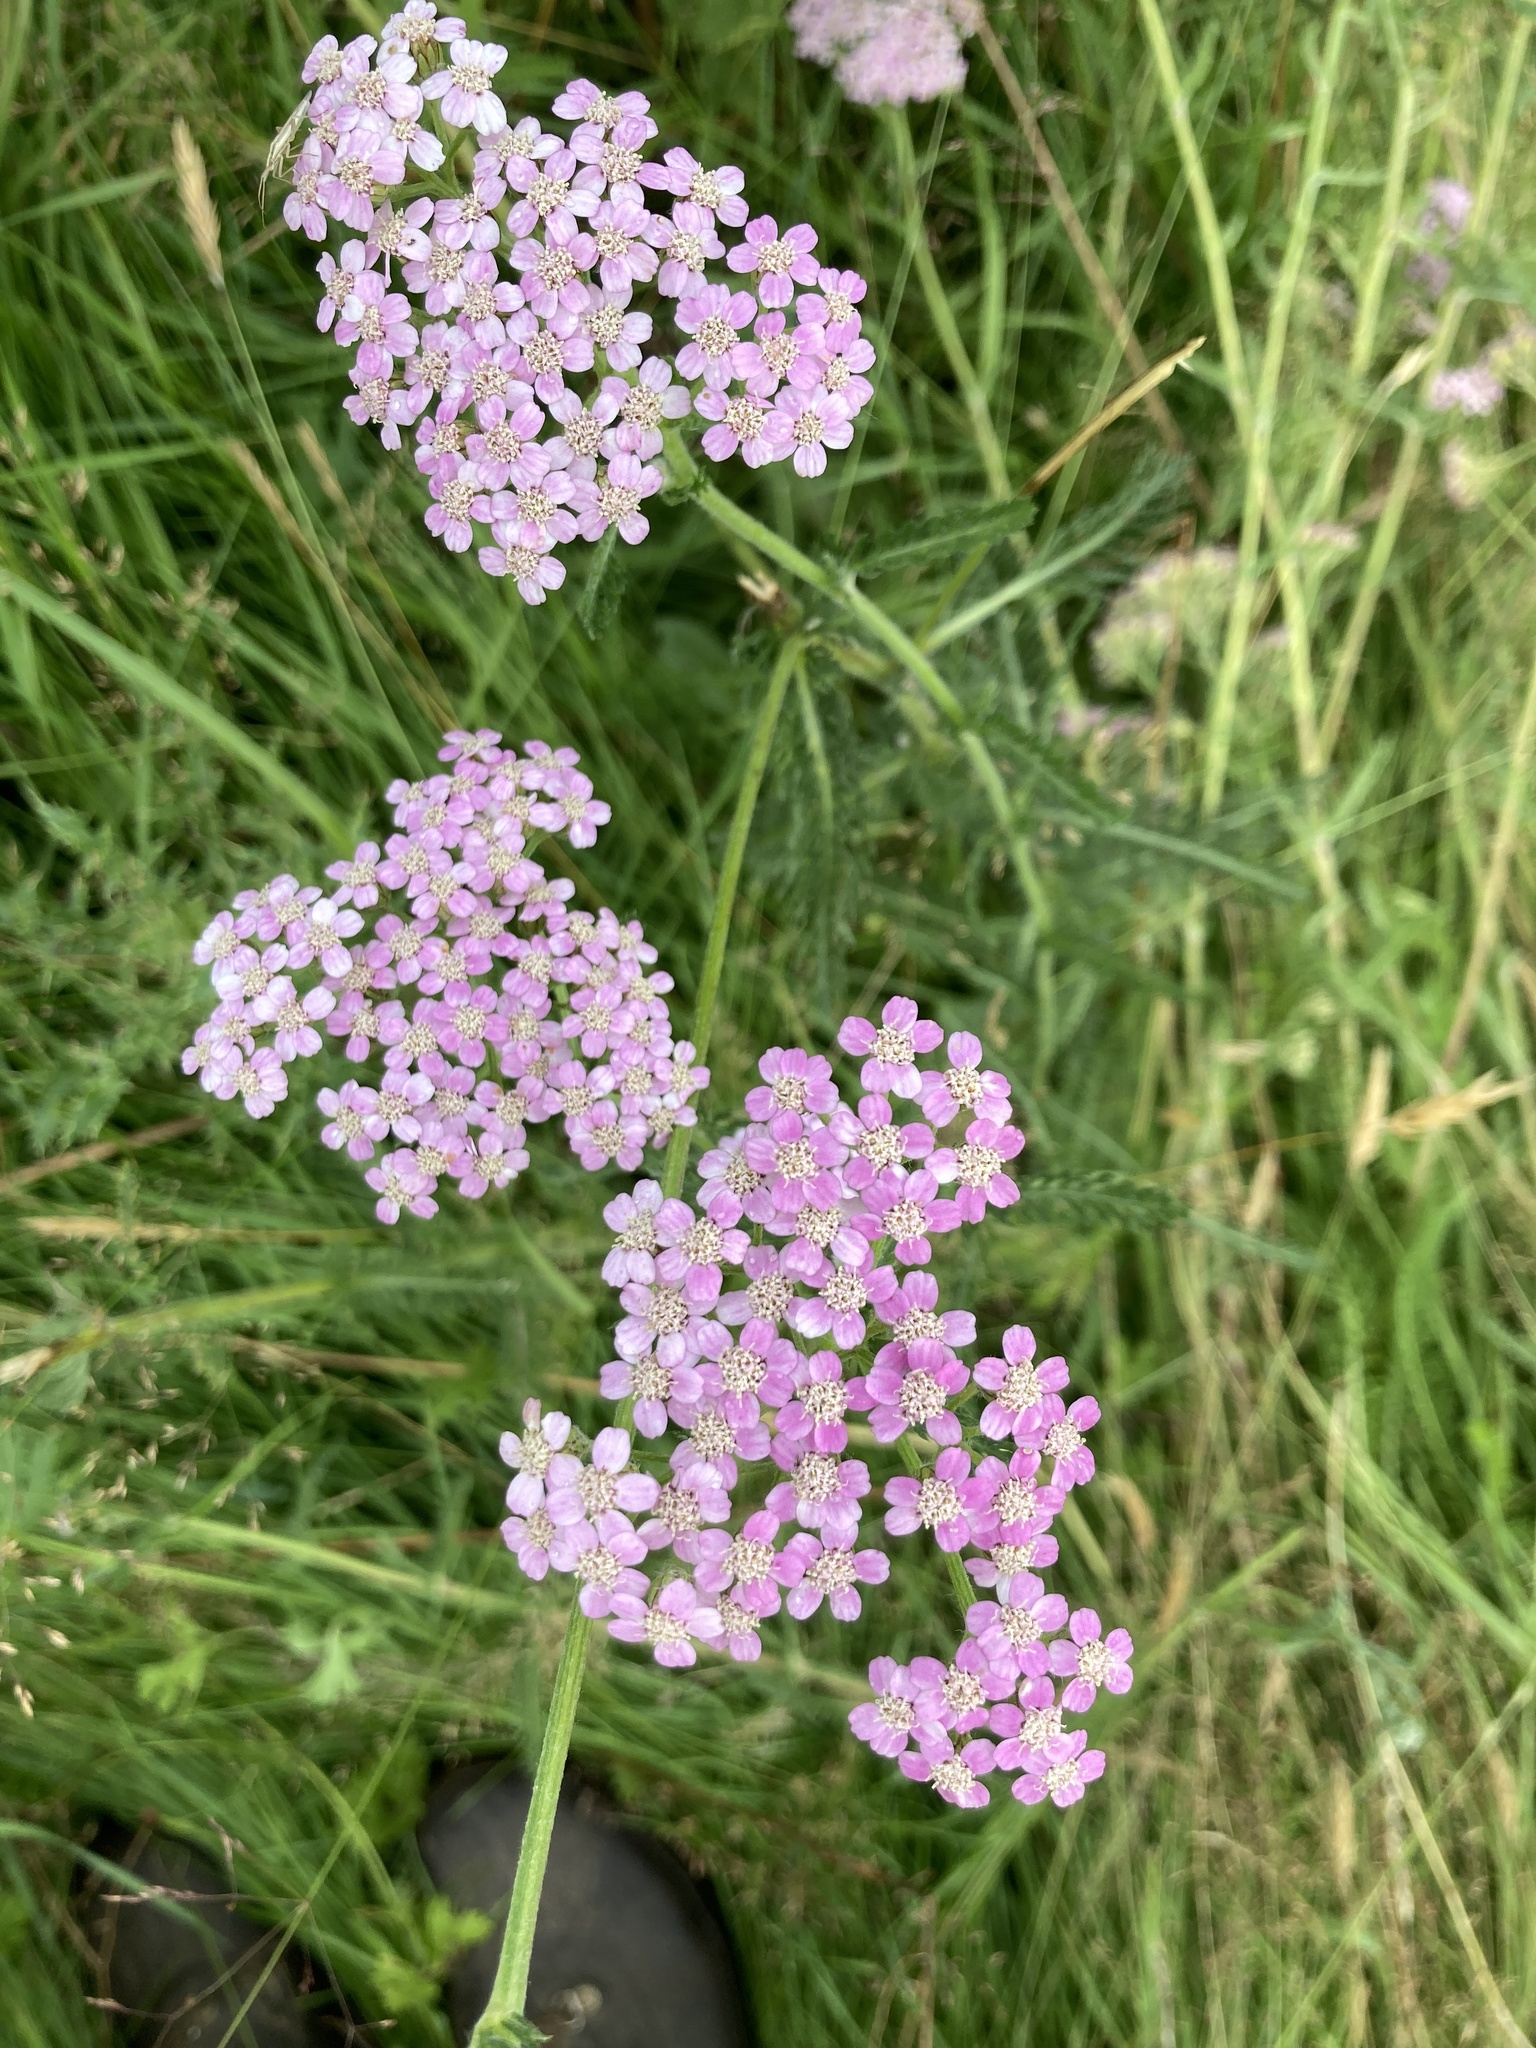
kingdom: Plantae
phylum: Tracheophyta
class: Magnoliopsida
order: Asterales
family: Asteraceae
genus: Achillea
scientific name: Achillea millefolium
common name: Yarrow
